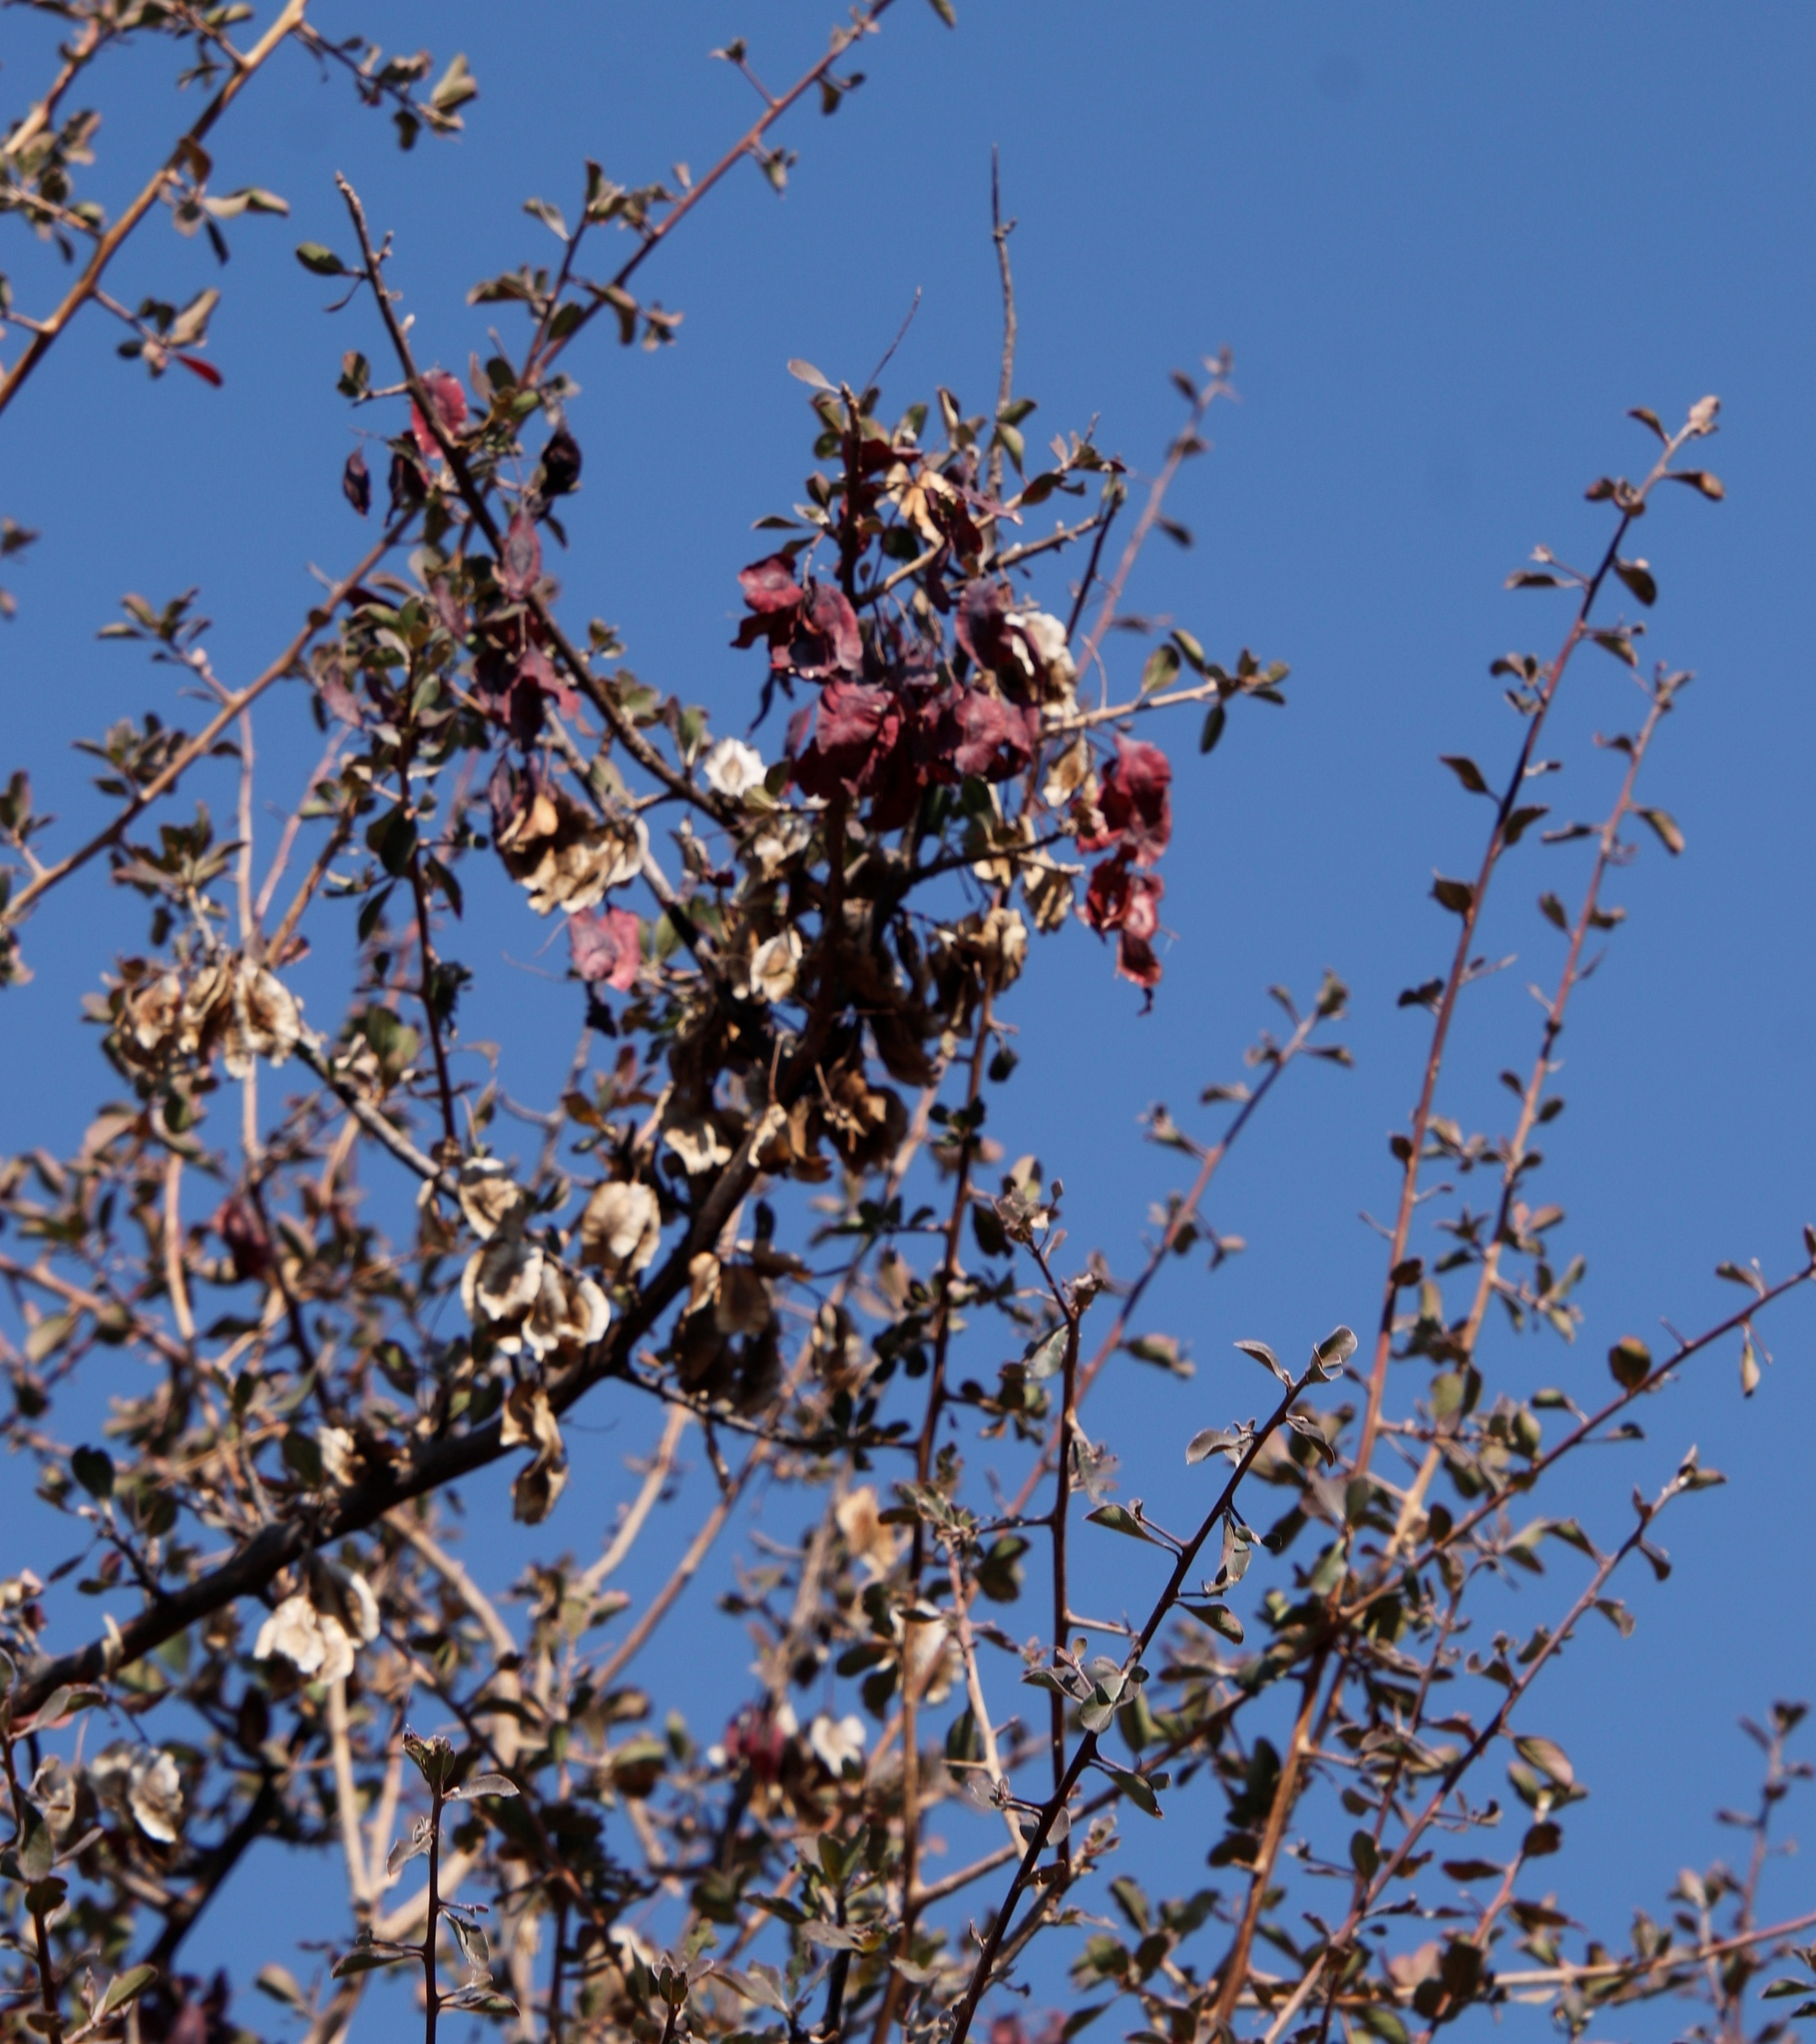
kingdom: Plantae
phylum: Tracheophyta
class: Magnoliopsida
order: Myrtales
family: Combretaceae
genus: Terminalia
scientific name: Terminalia prunioides
